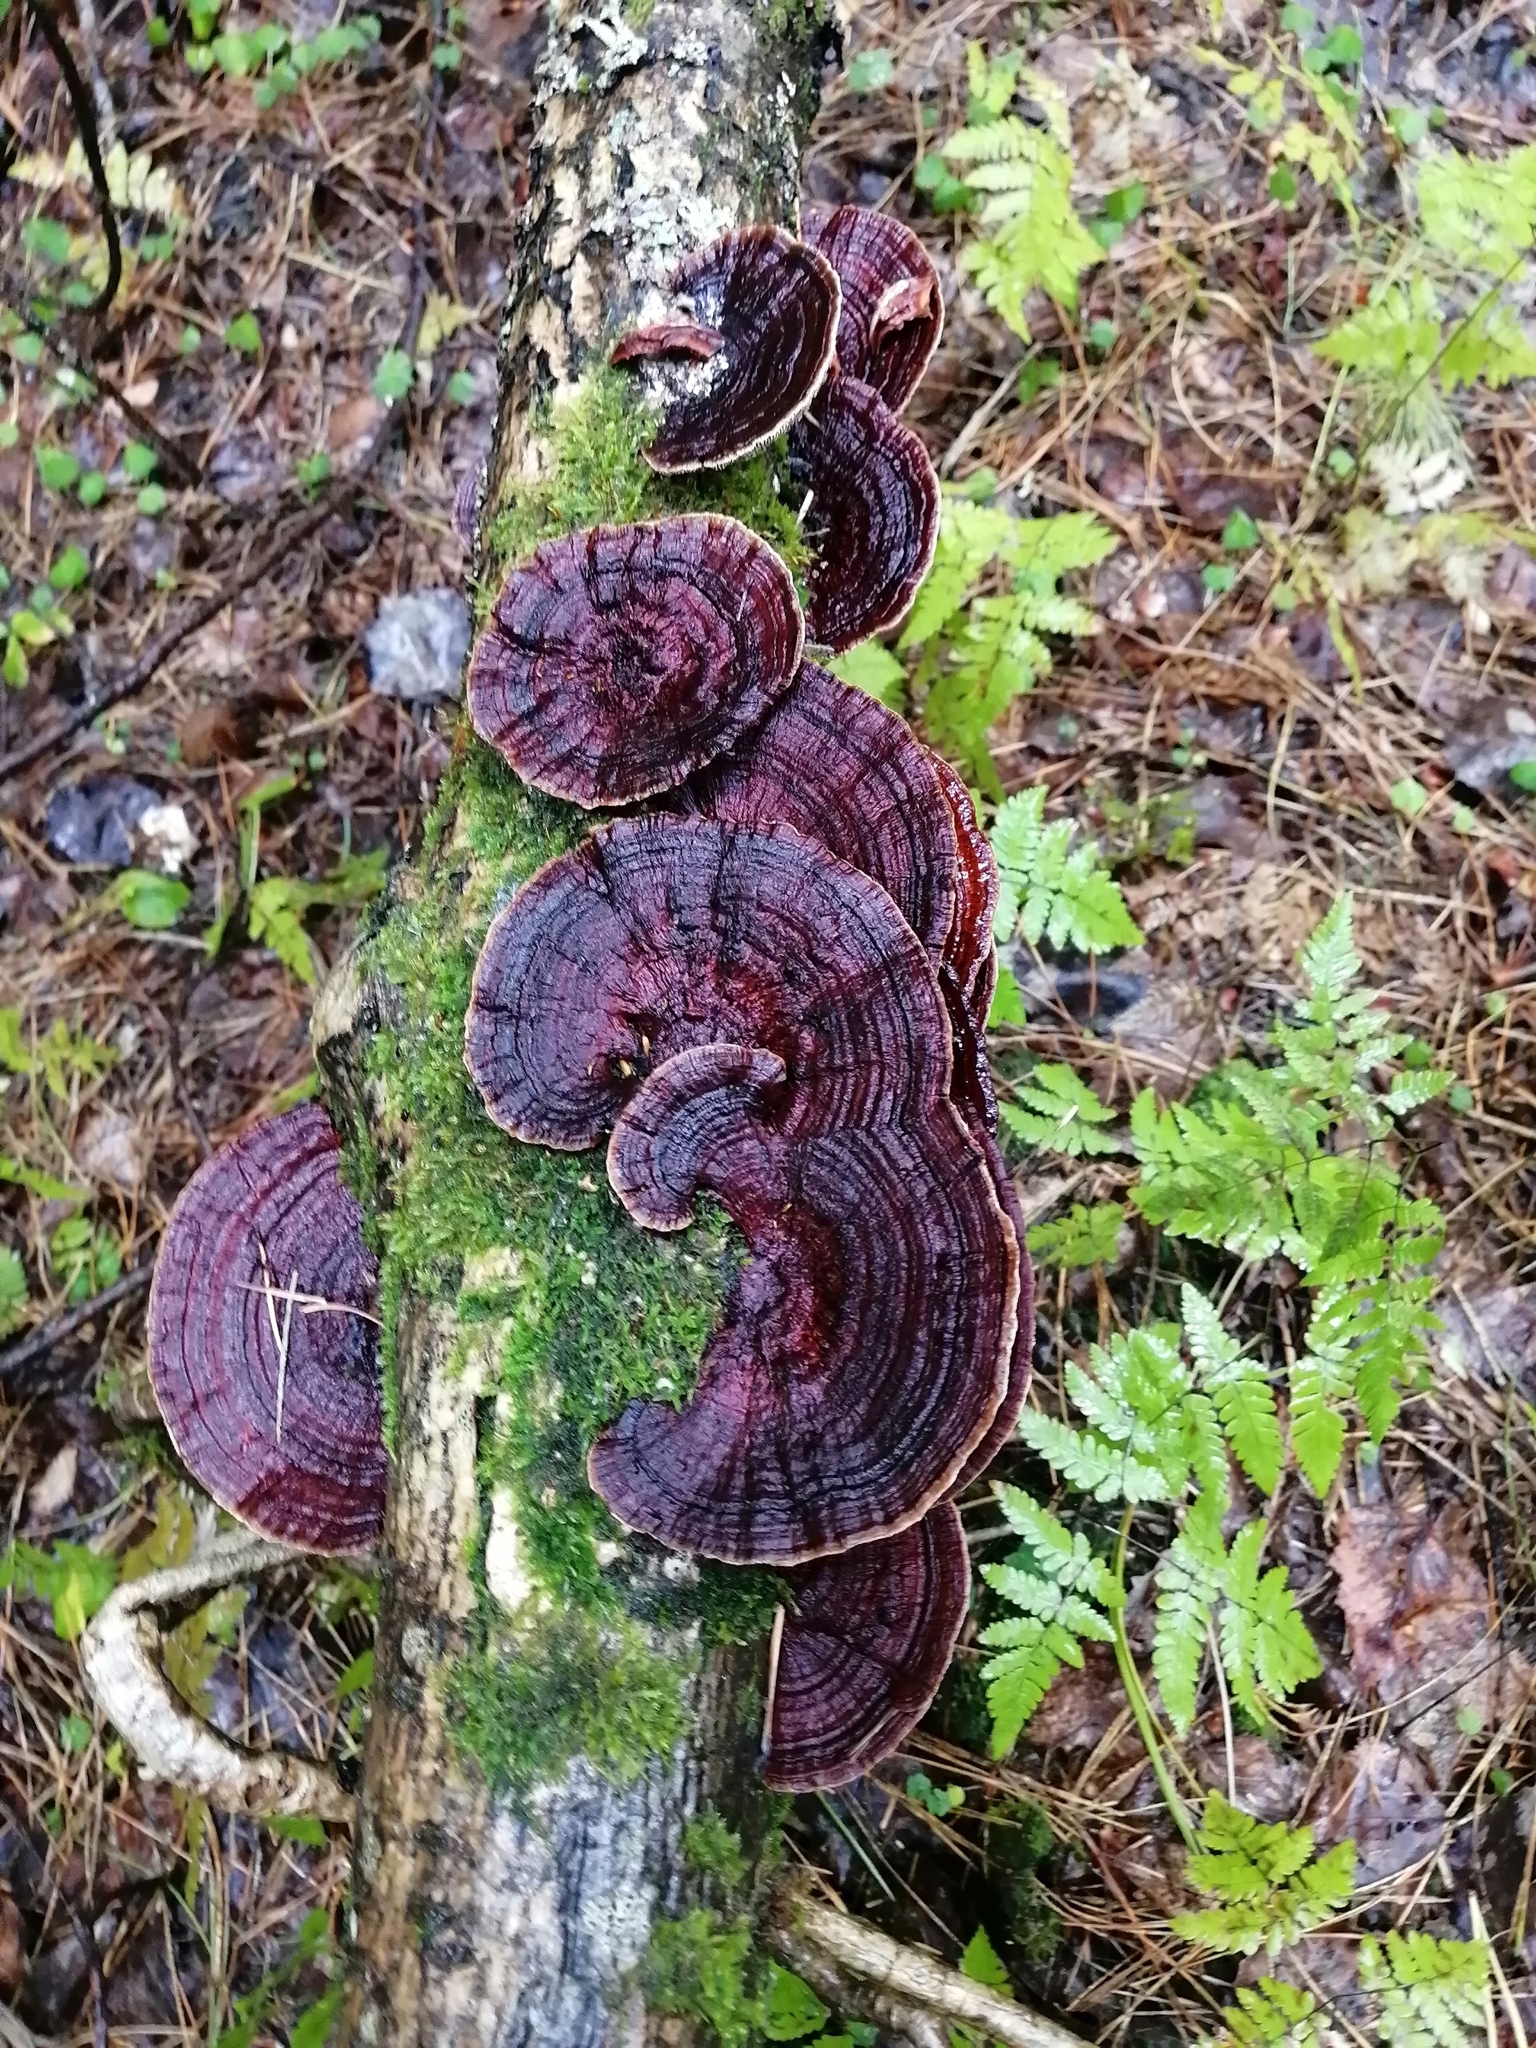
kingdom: Fungi
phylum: Basidiomycota
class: Agaricomycetes
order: Polyporales
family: Polyporaceae
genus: Daedaleopsis
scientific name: Daedaleopsis tricolor
